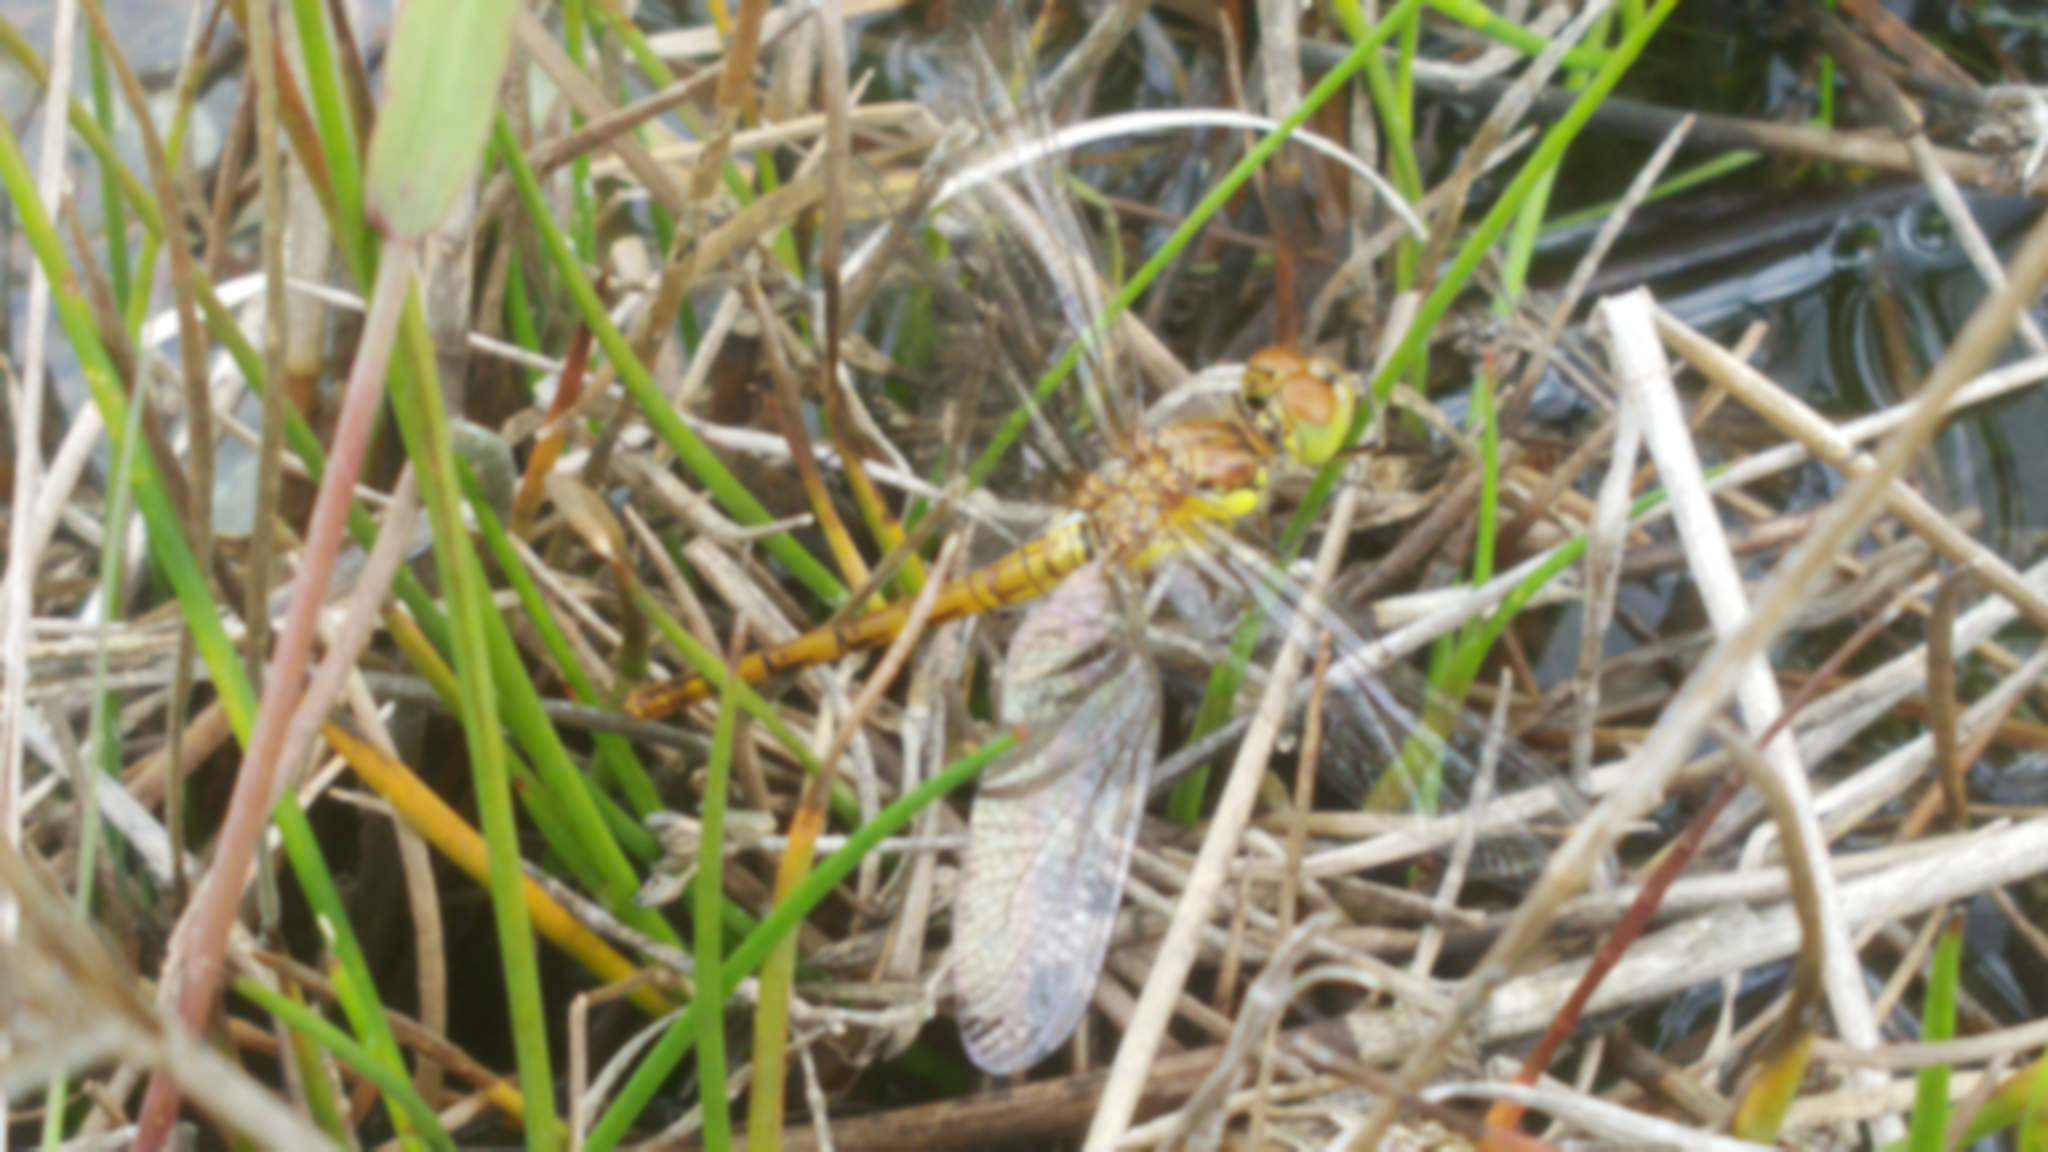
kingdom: Animalia
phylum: Arthropoda
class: Insecta
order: Odonata
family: Libellulidae
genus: Sympetrum
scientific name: Sympetrum striolatum
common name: Common darter
